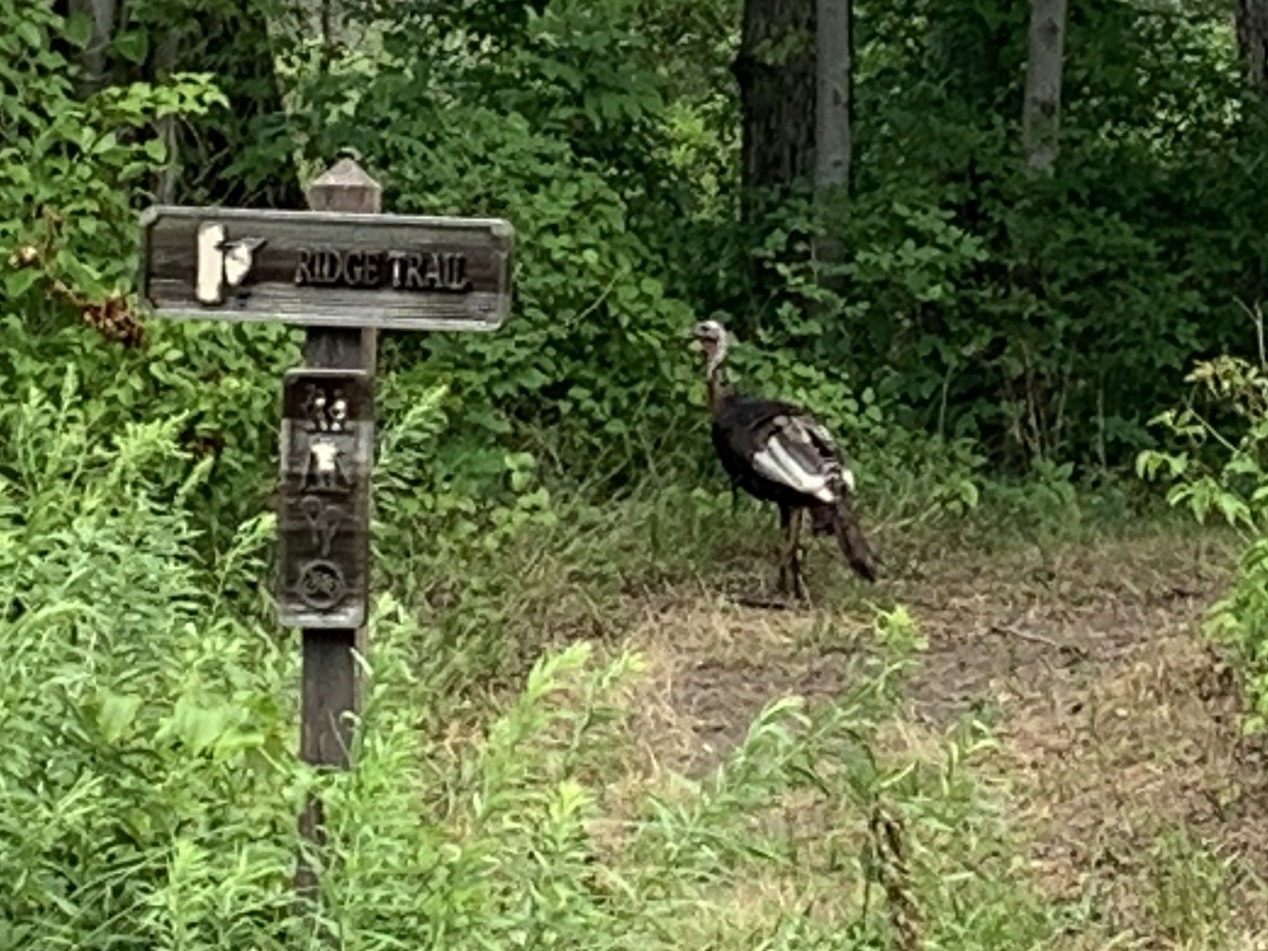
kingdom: Animalia
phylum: Chordata
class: Aves
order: Galliformes
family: Phasianidae
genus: Meleagris
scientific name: Meleagris gallopavo
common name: Wild turkey
